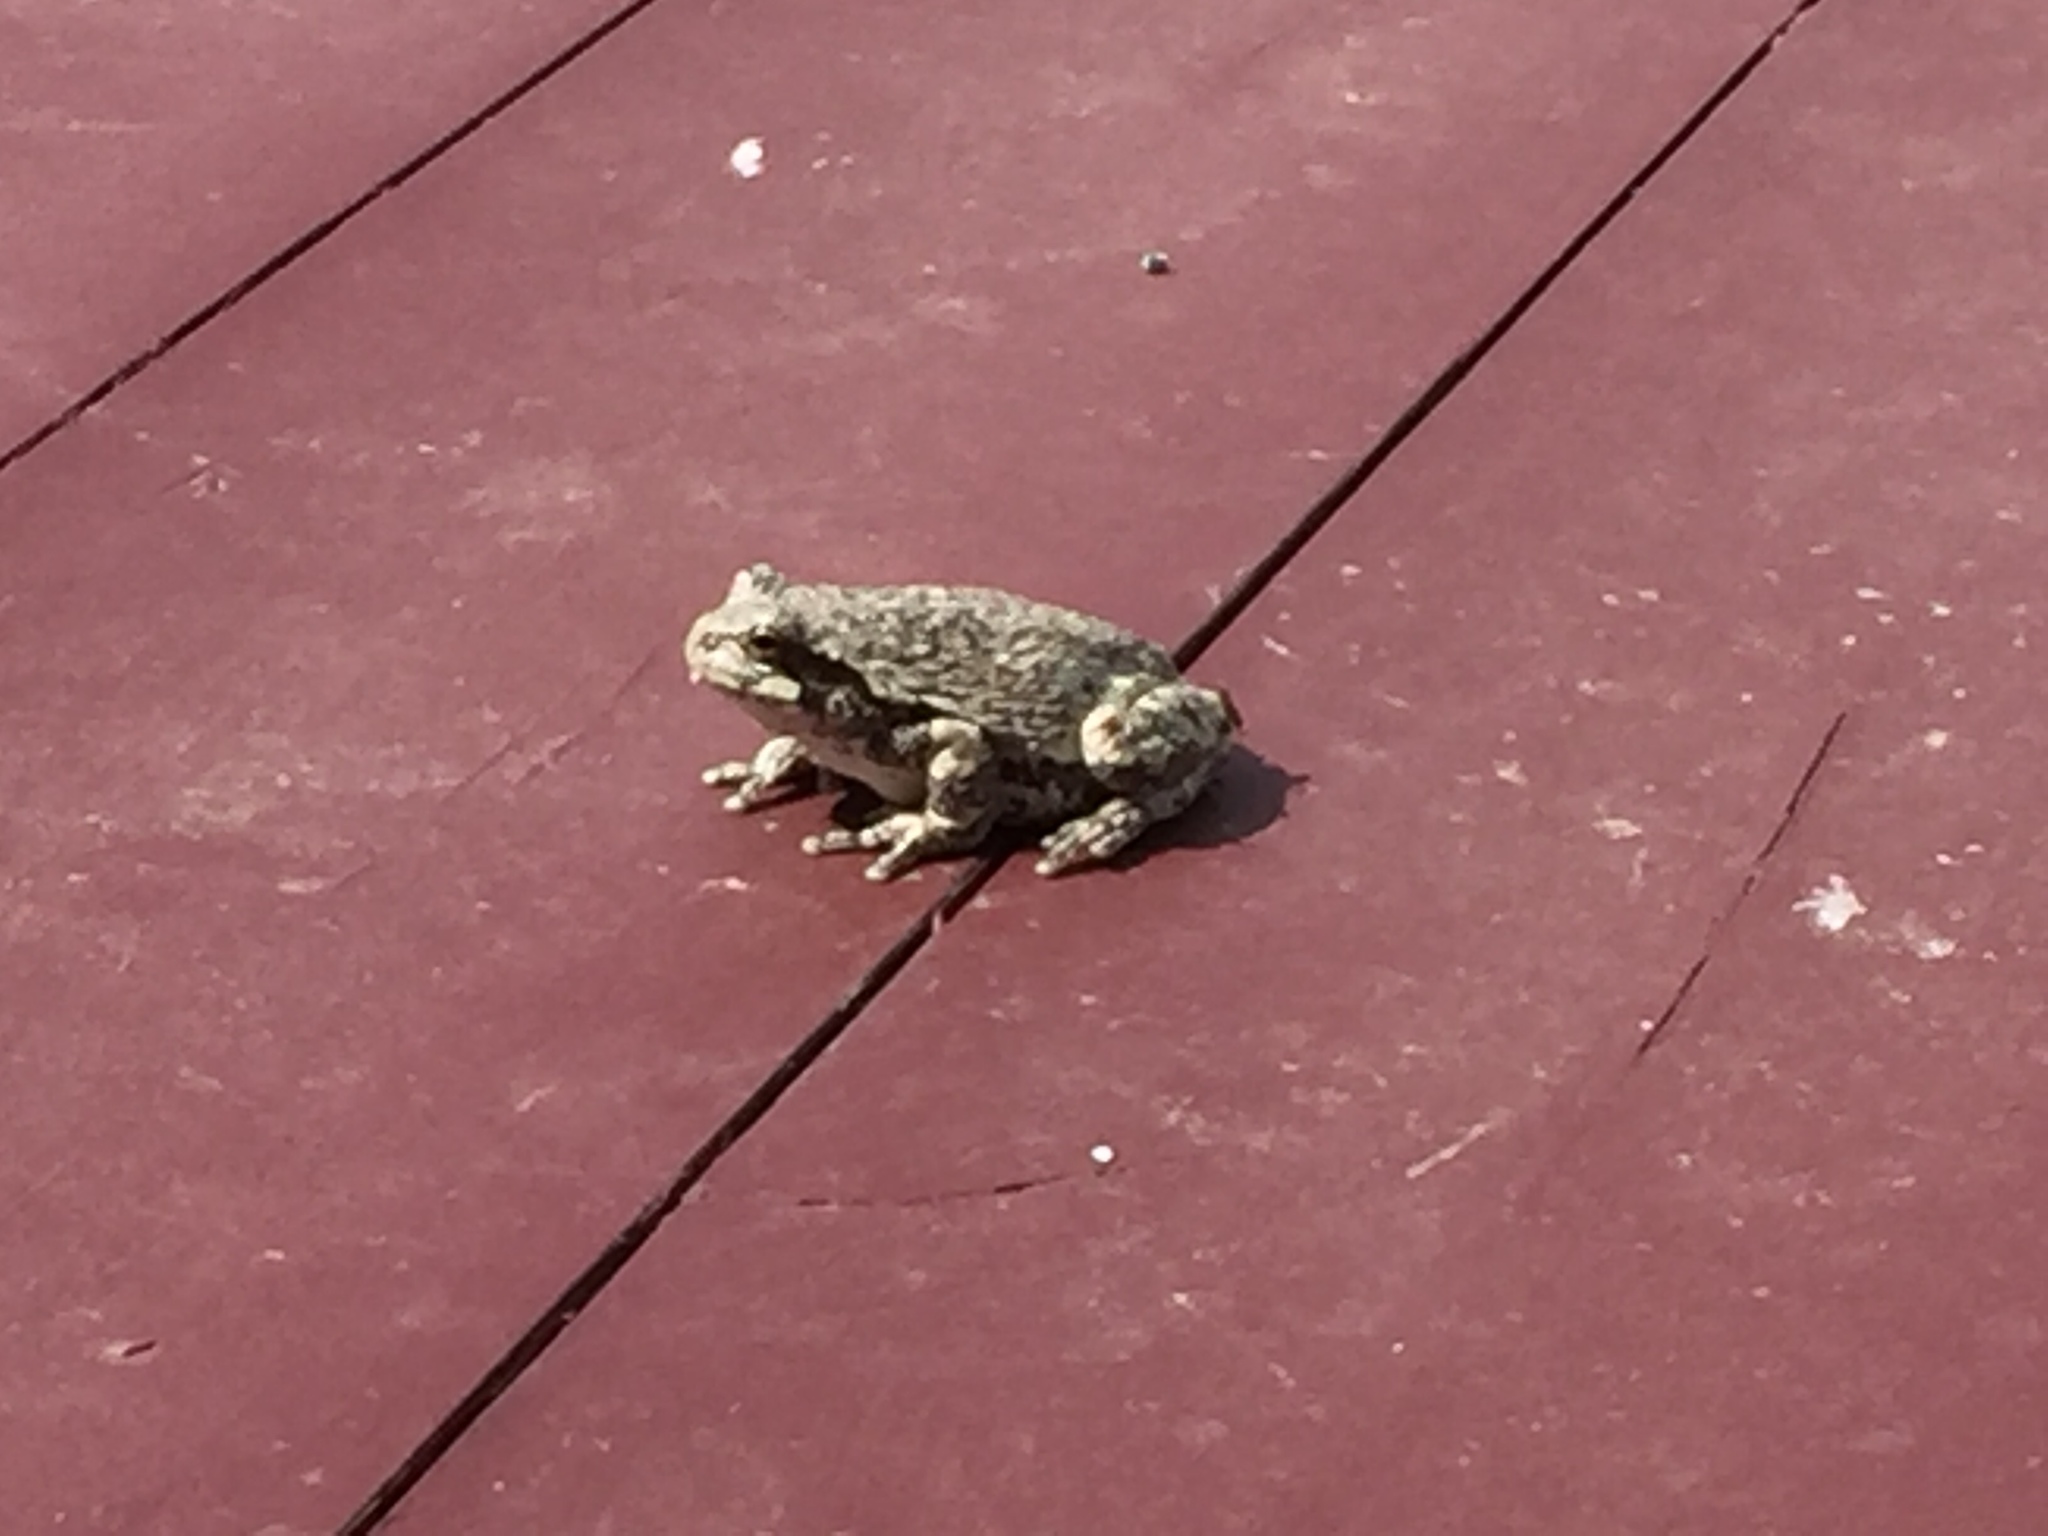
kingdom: Animalia
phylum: Chordata
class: Amphibia
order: Anura
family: Hylidae
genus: Dryophytes
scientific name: Dryophytes versicolor
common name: Gray treefrog
